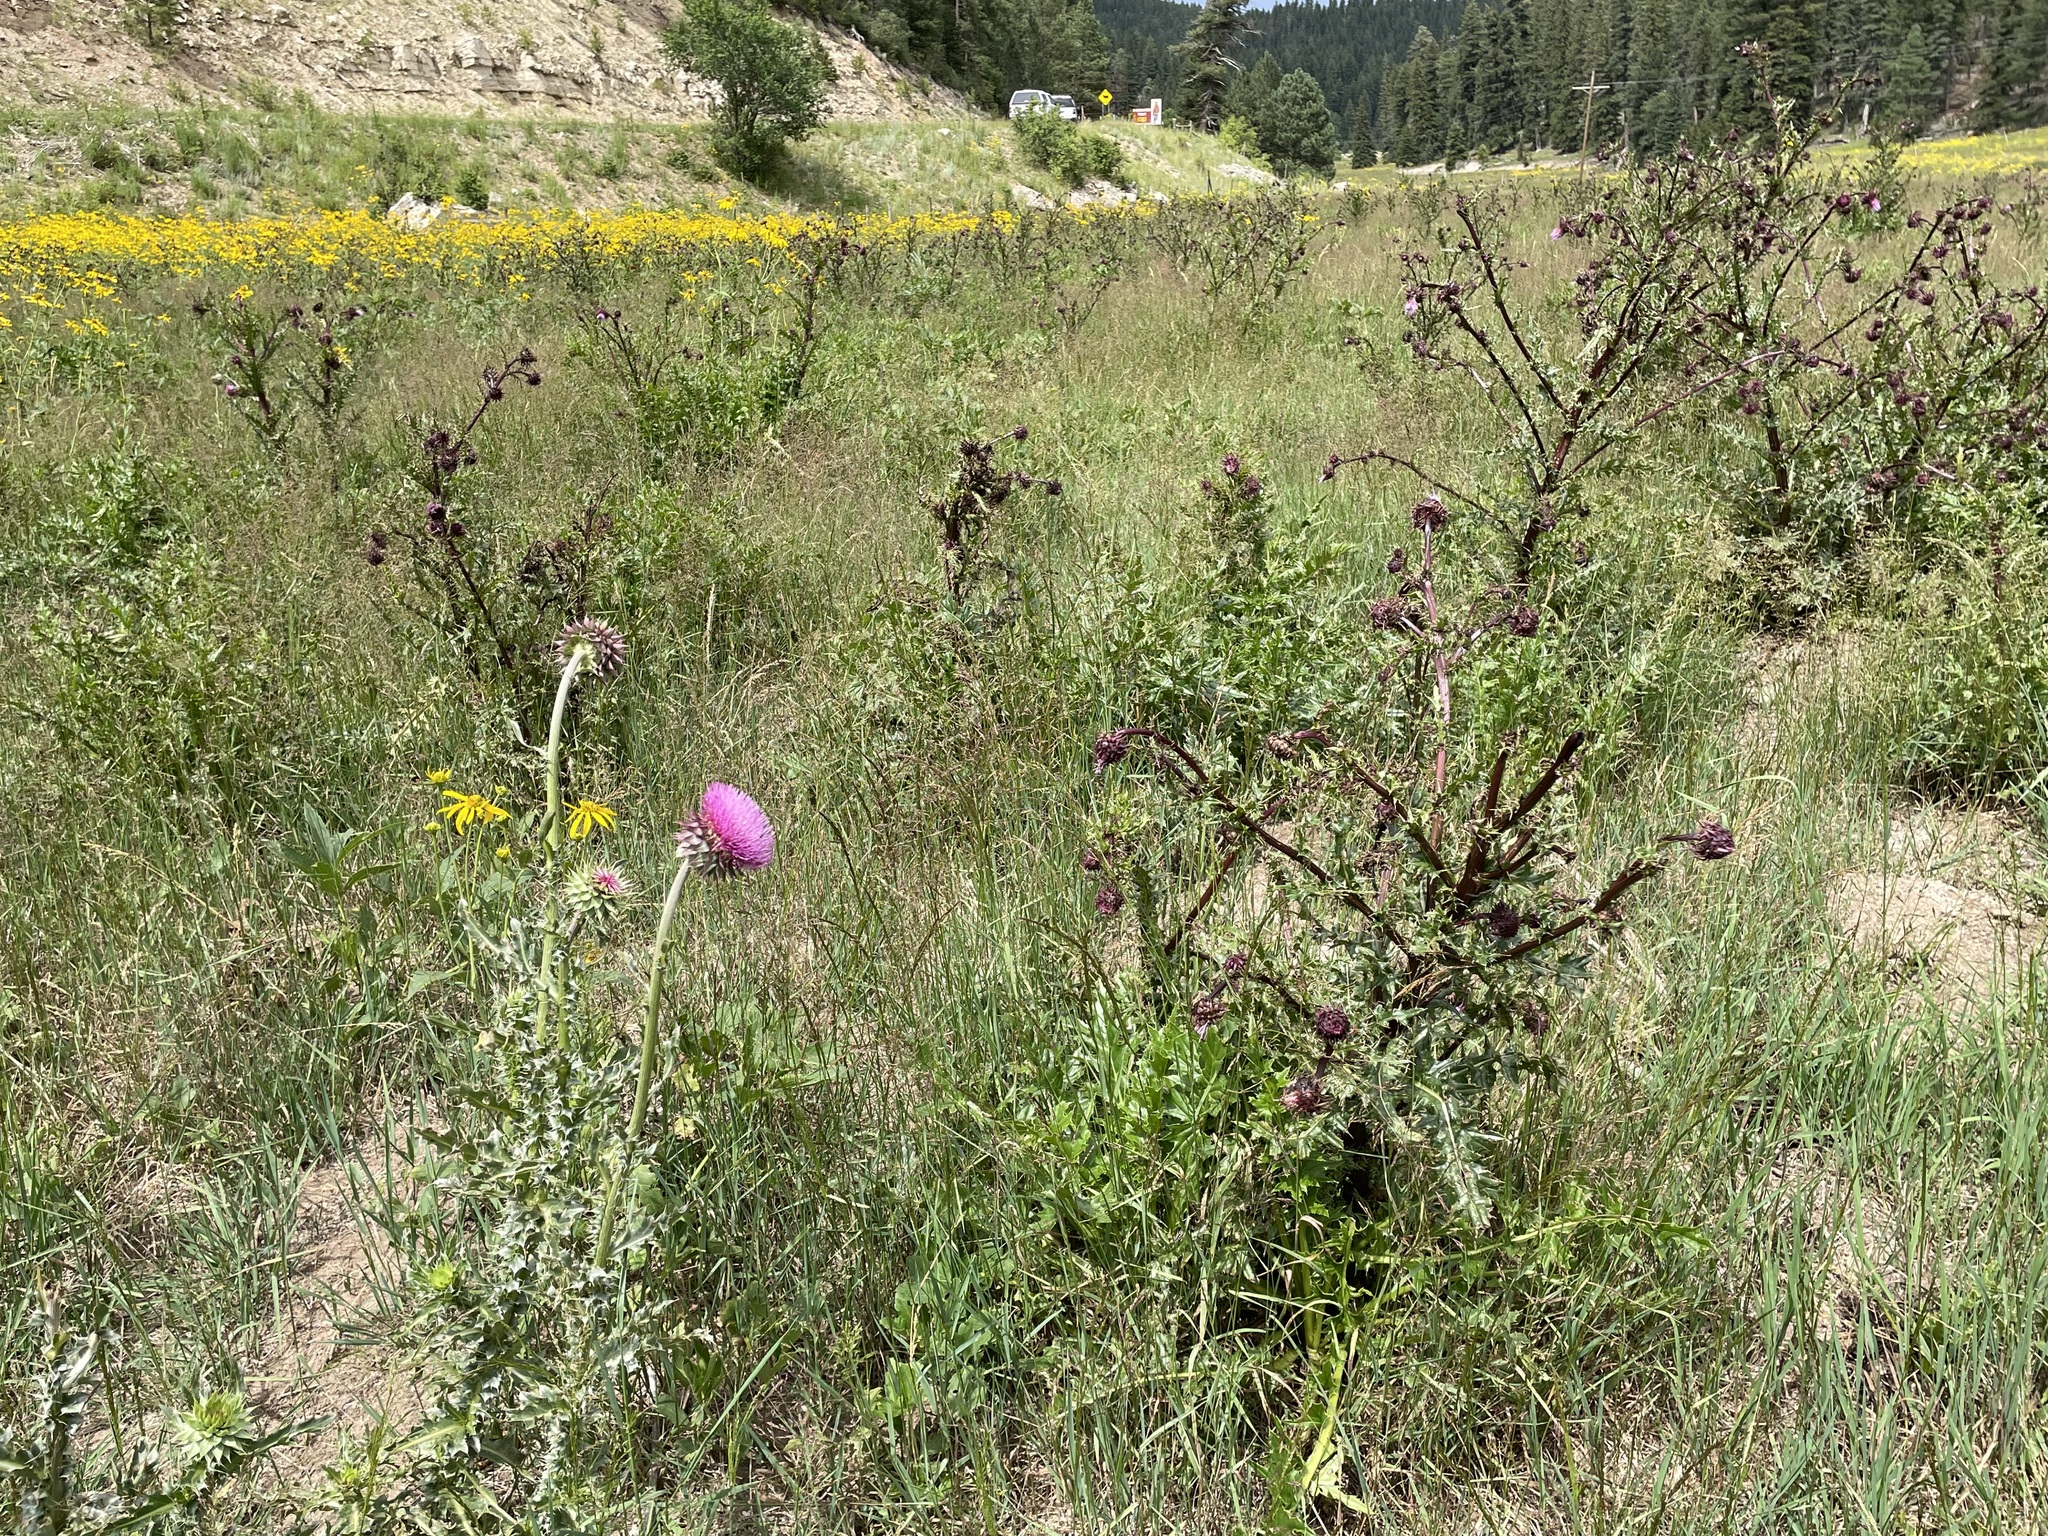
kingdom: Plantae
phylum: Tracheophyta
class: Magnoliopsida
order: Asterales
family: Asteraceae
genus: Carduus
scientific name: Carduus nutans
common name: Musk thistle
